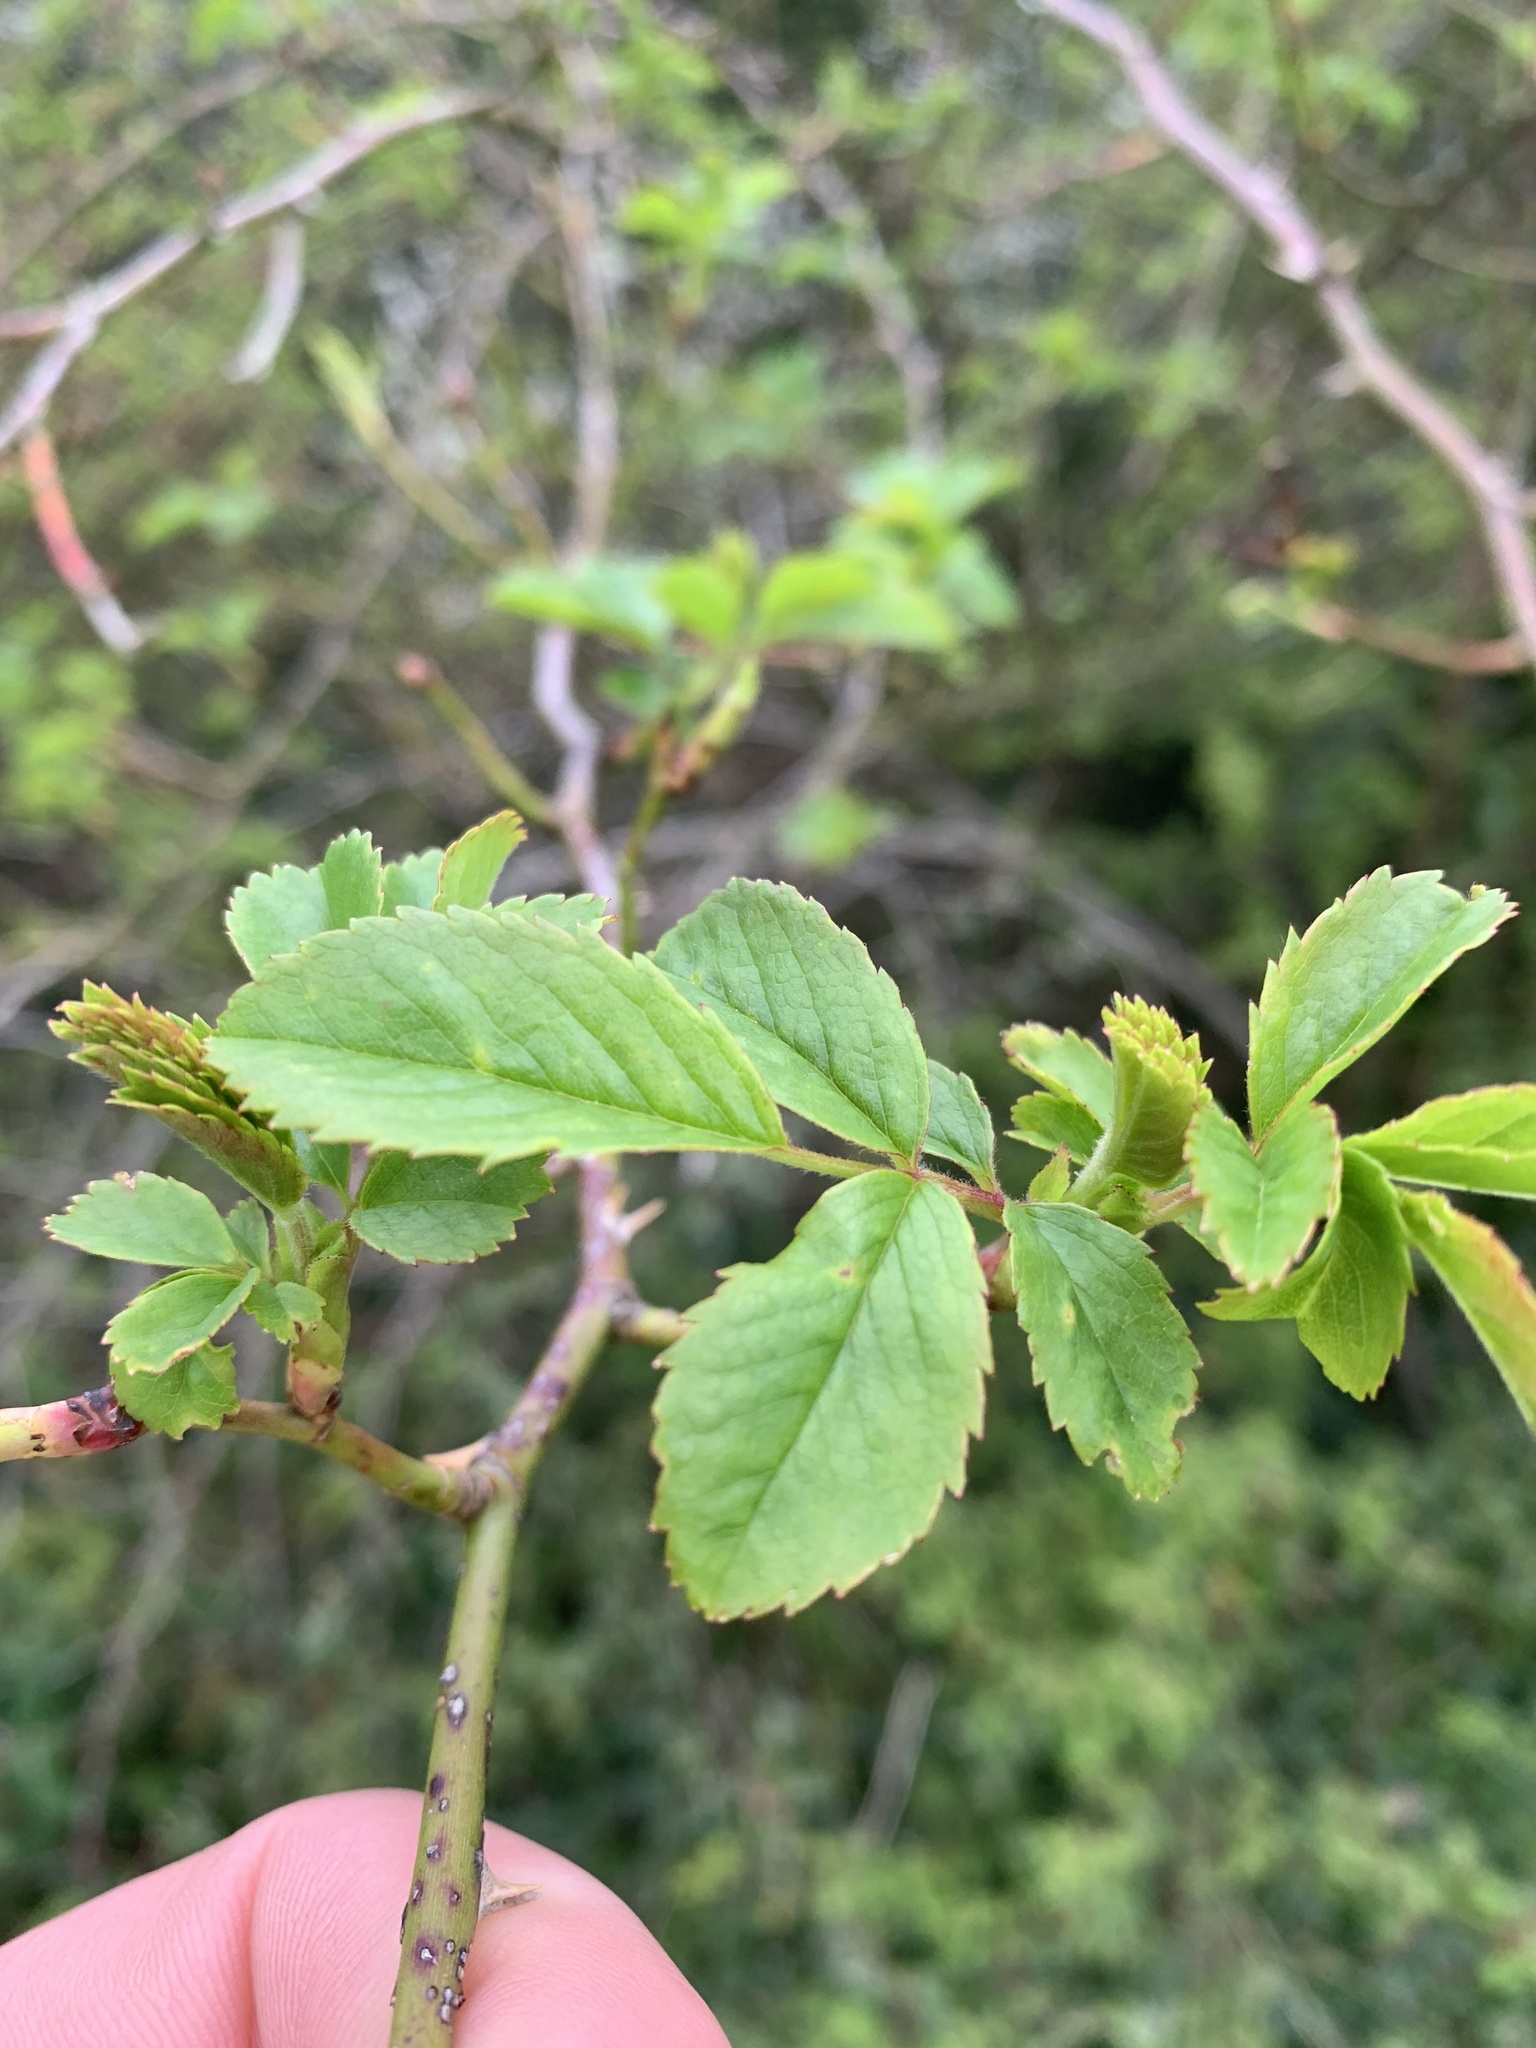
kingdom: Plantae
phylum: Tracheophyta
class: Magnoliopsida
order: Rosales
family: Rosaceae
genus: Rosa
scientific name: Rosa canina
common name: Dog rose
